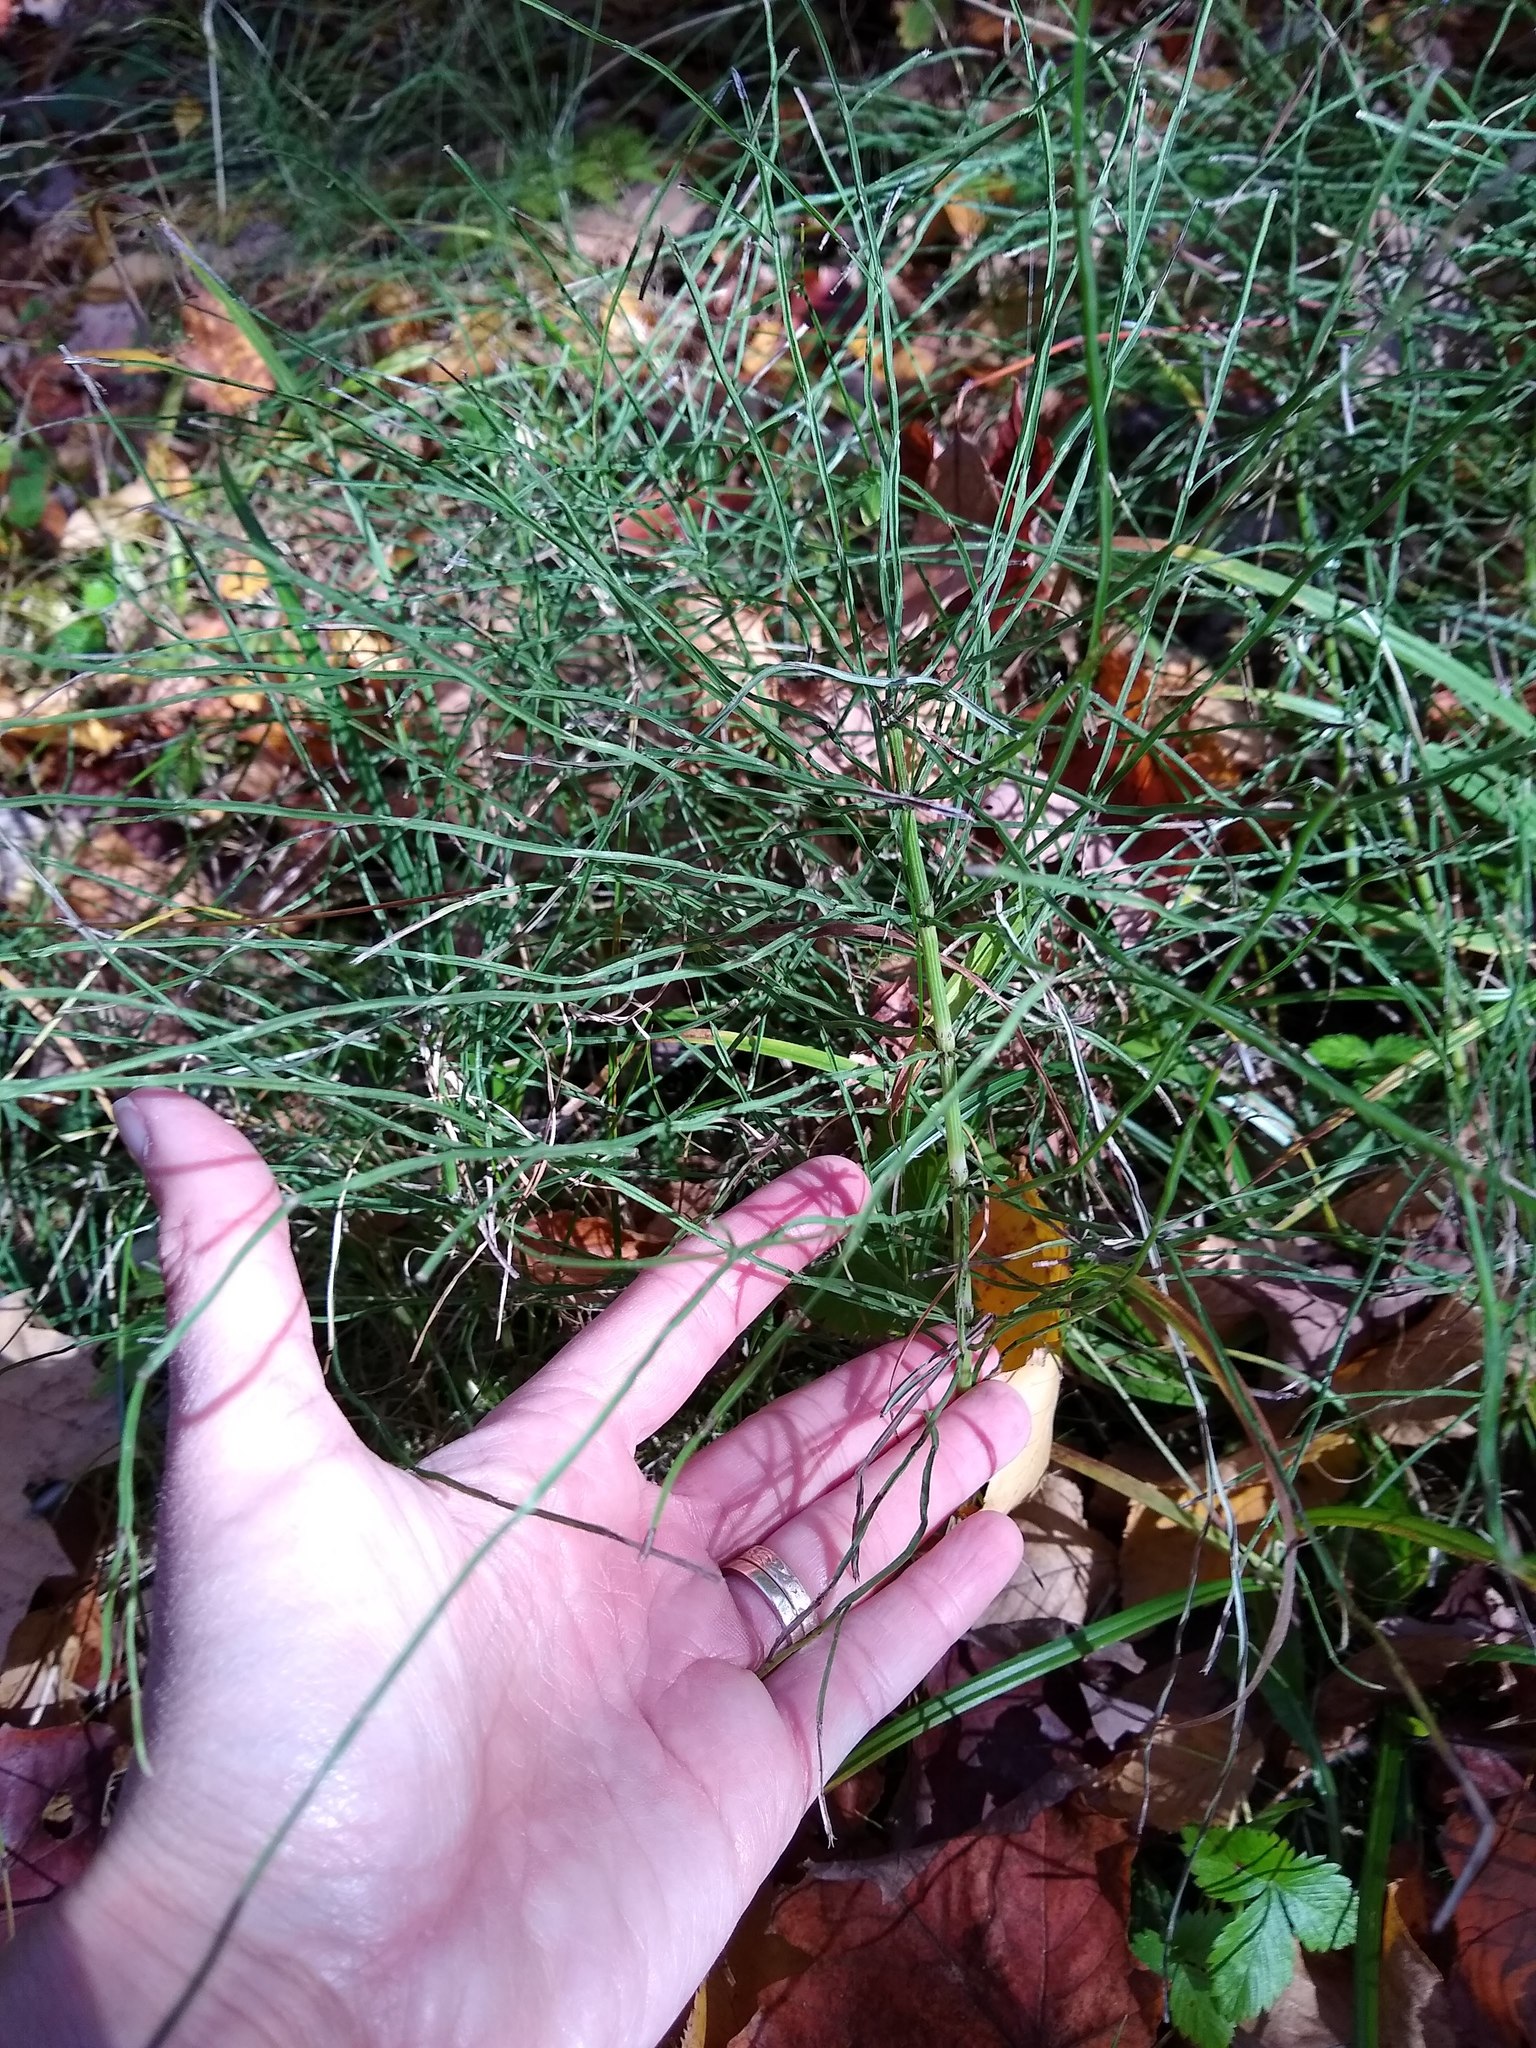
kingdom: Plantae
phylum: Tracheophyta
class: Polypodiopsida
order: Equisetales
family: Equisetaceae
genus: Equisetum
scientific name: Equisetum arvense
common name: Field horsetail
